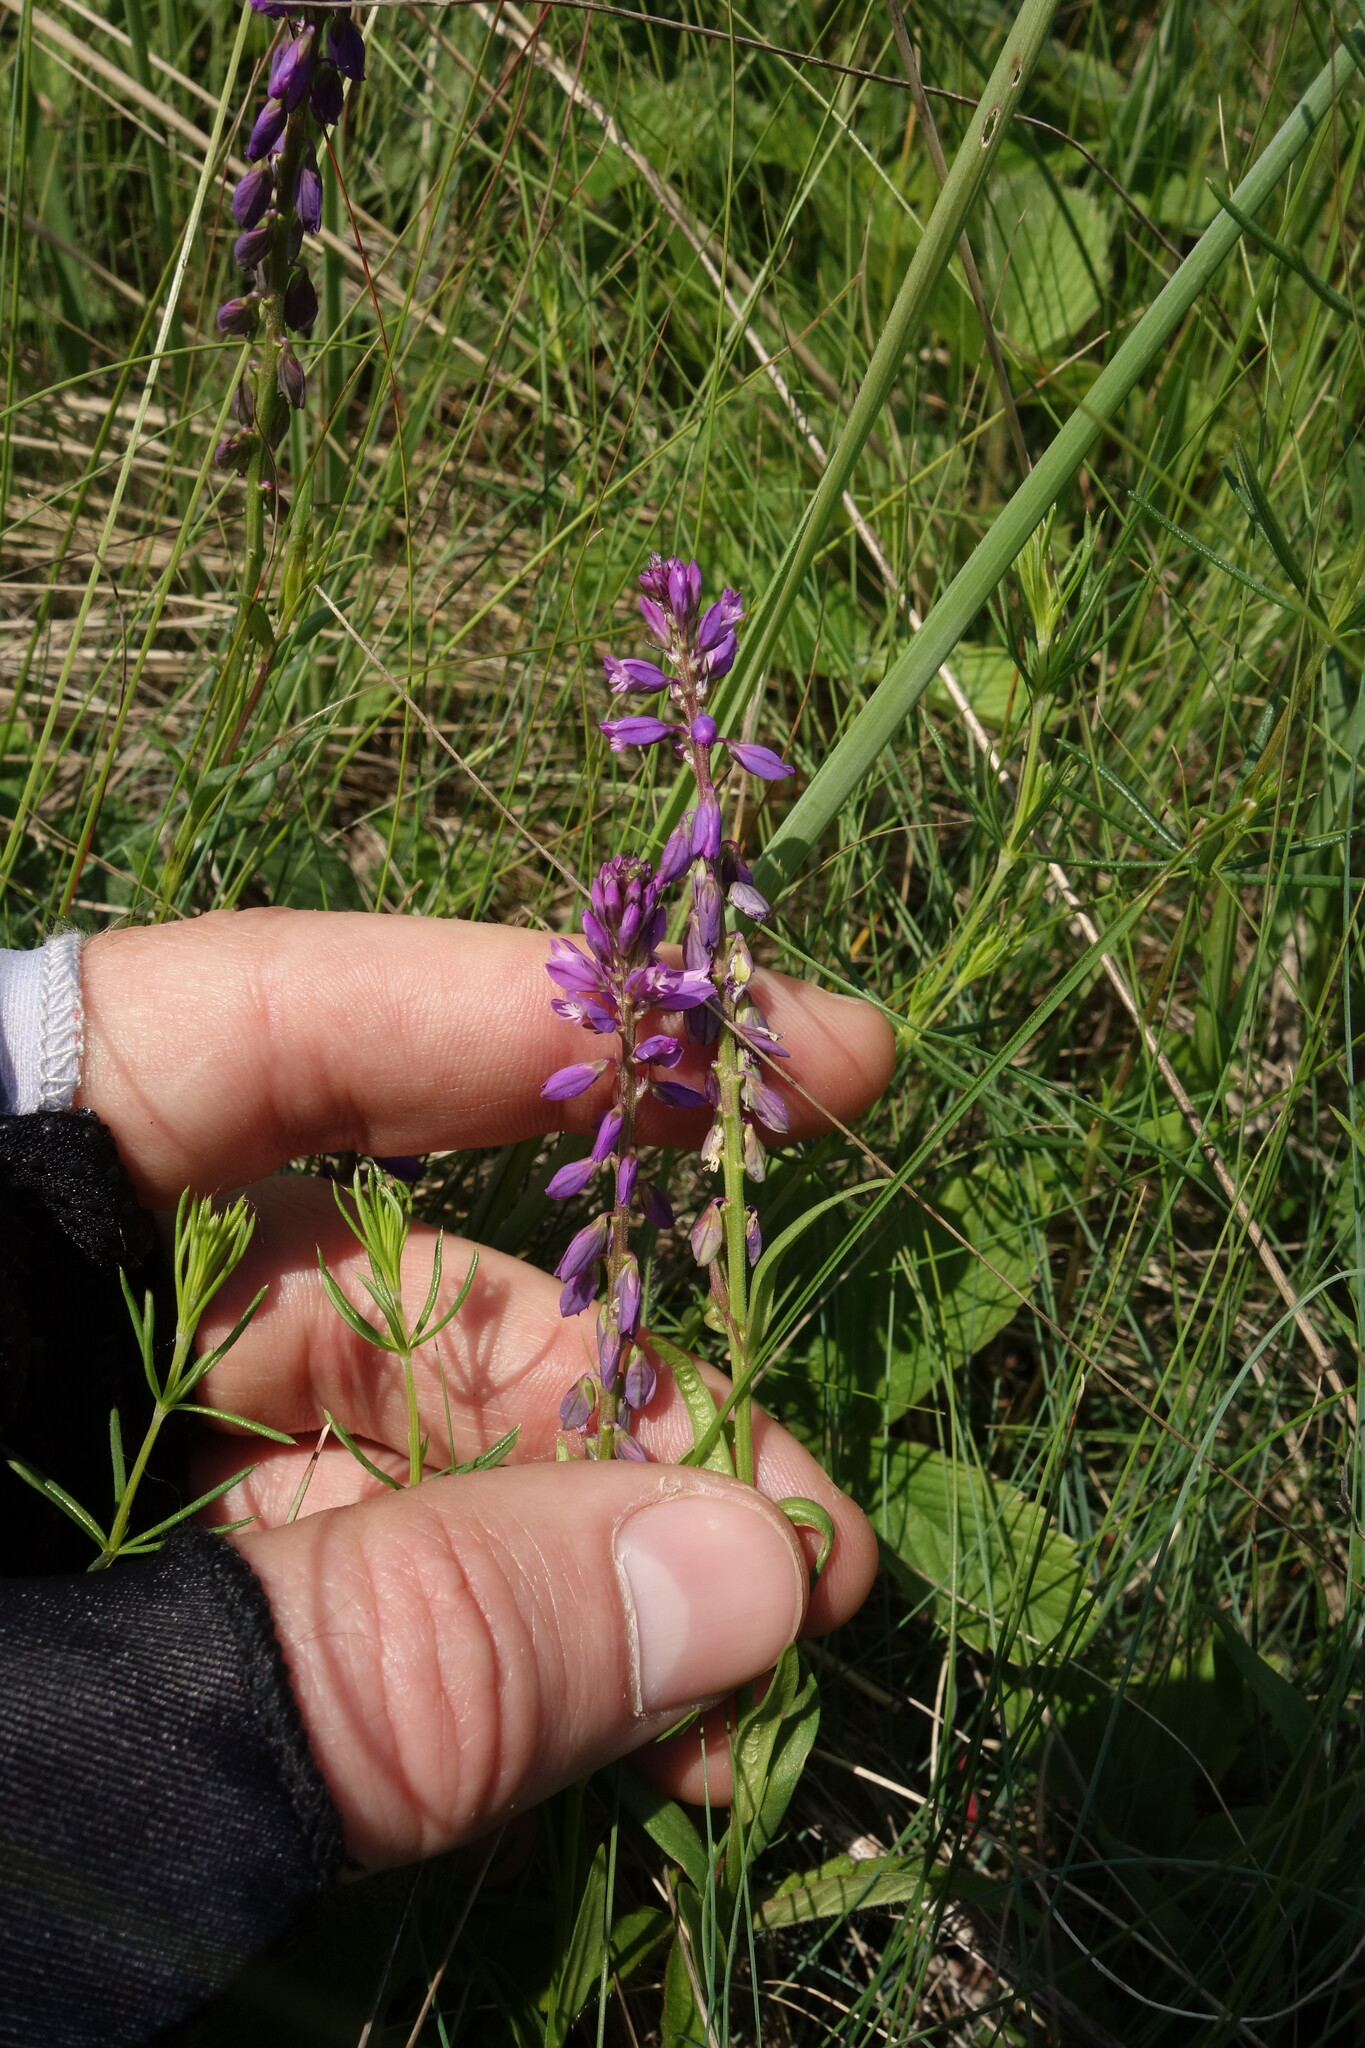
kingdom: Plantae
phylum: Tracheophyta
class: Magnoliopsida
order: Fabales
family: Polygalaceae
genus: Polygala
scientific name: Polygala comosa
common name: Tufted milkwort
